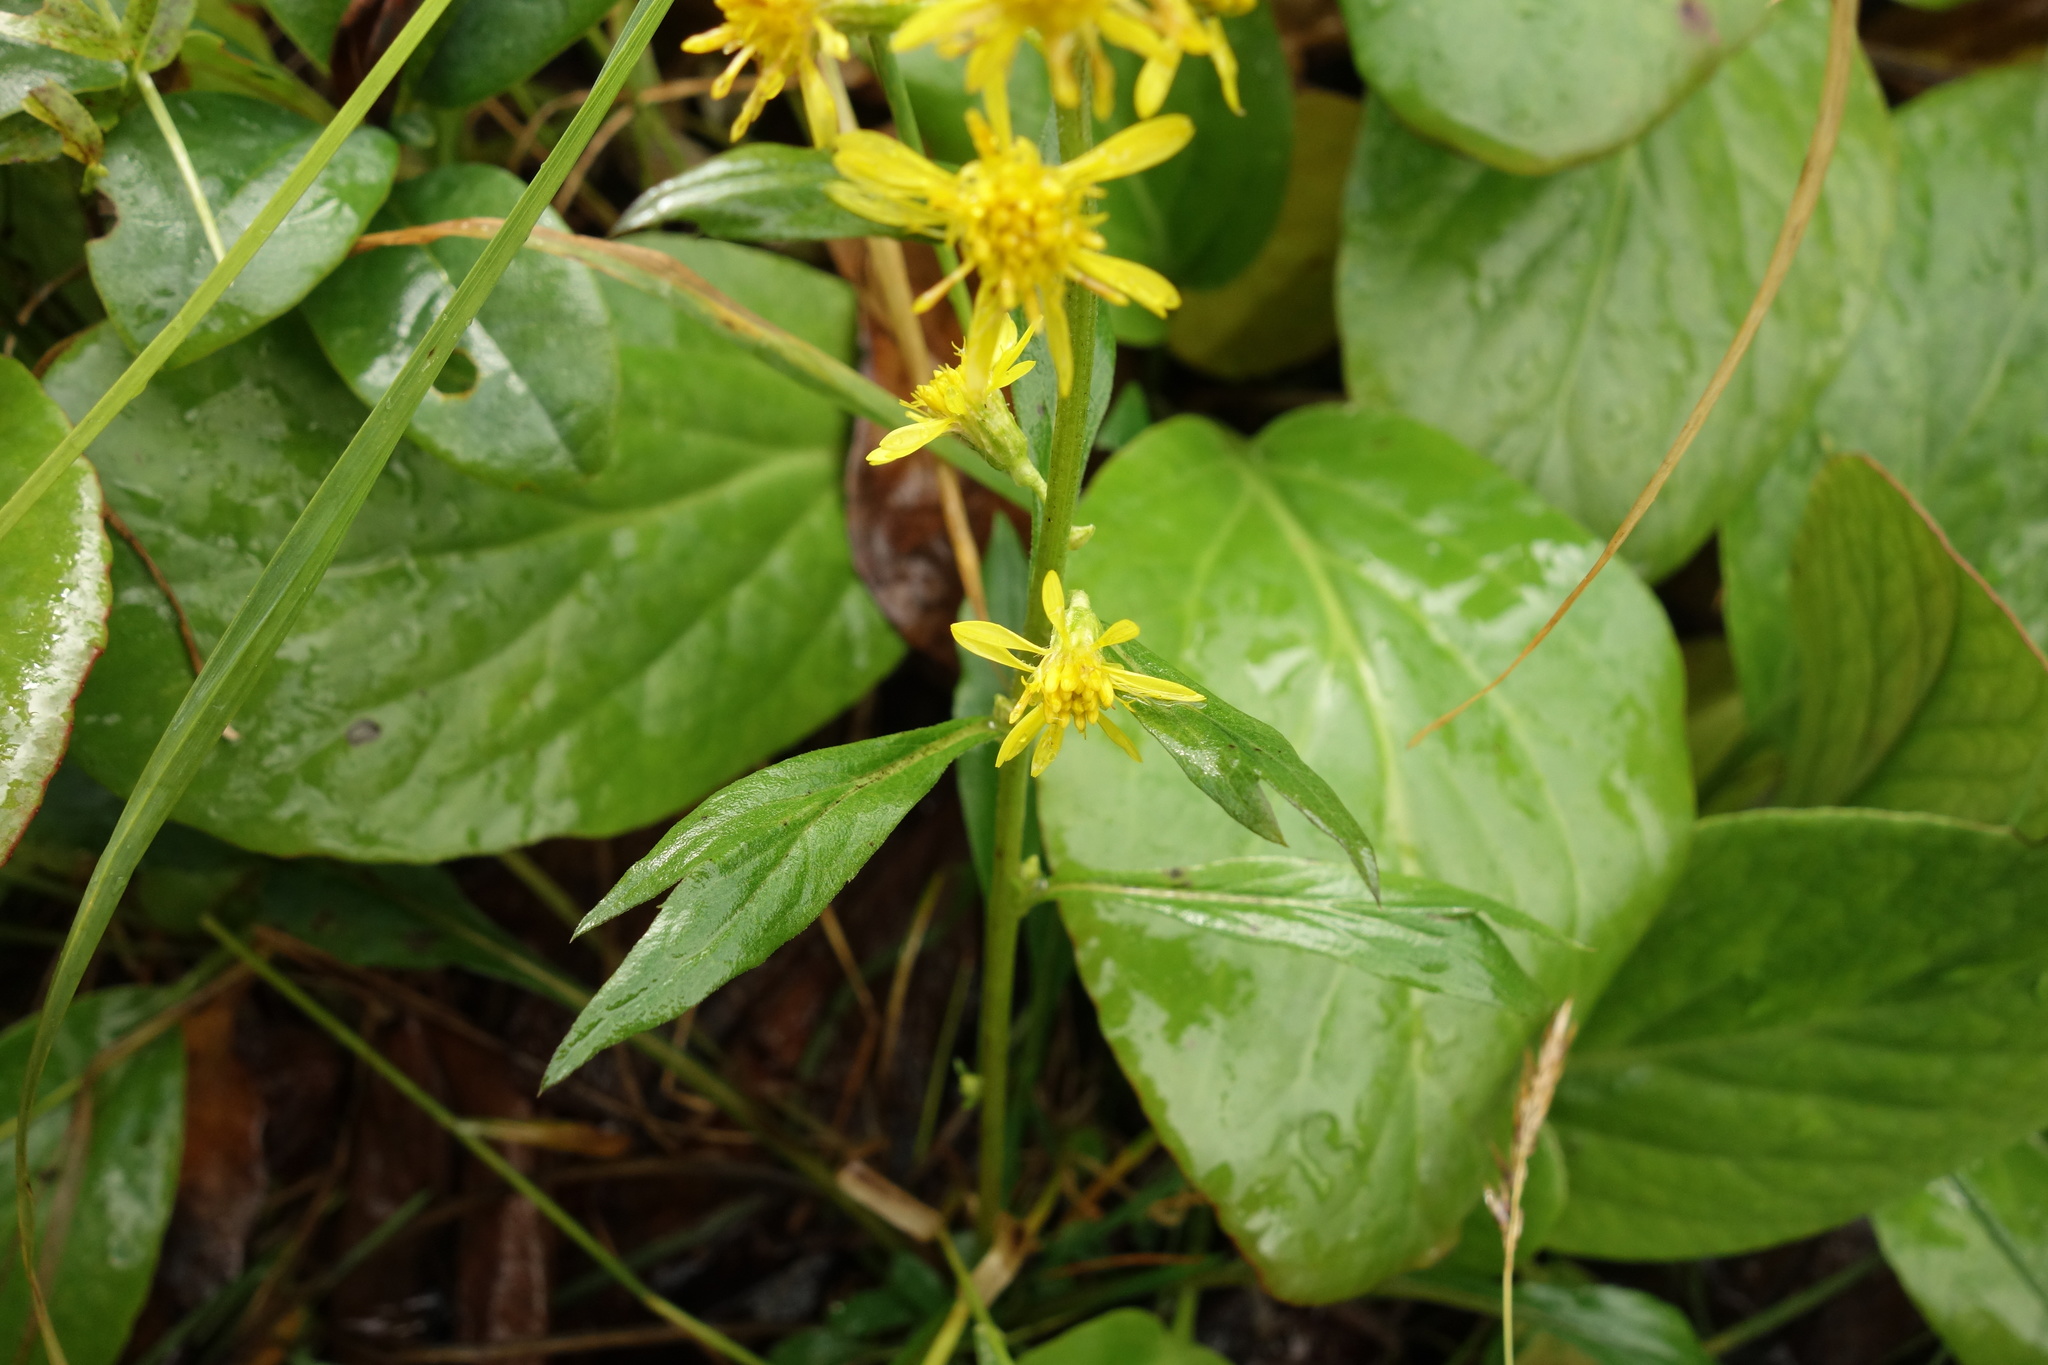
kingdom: Plantae
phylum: Tracheophyta
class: Magnoliopsida
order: Asterales
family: Asteraceae
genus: Solidago
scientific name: Solidago dahurica
